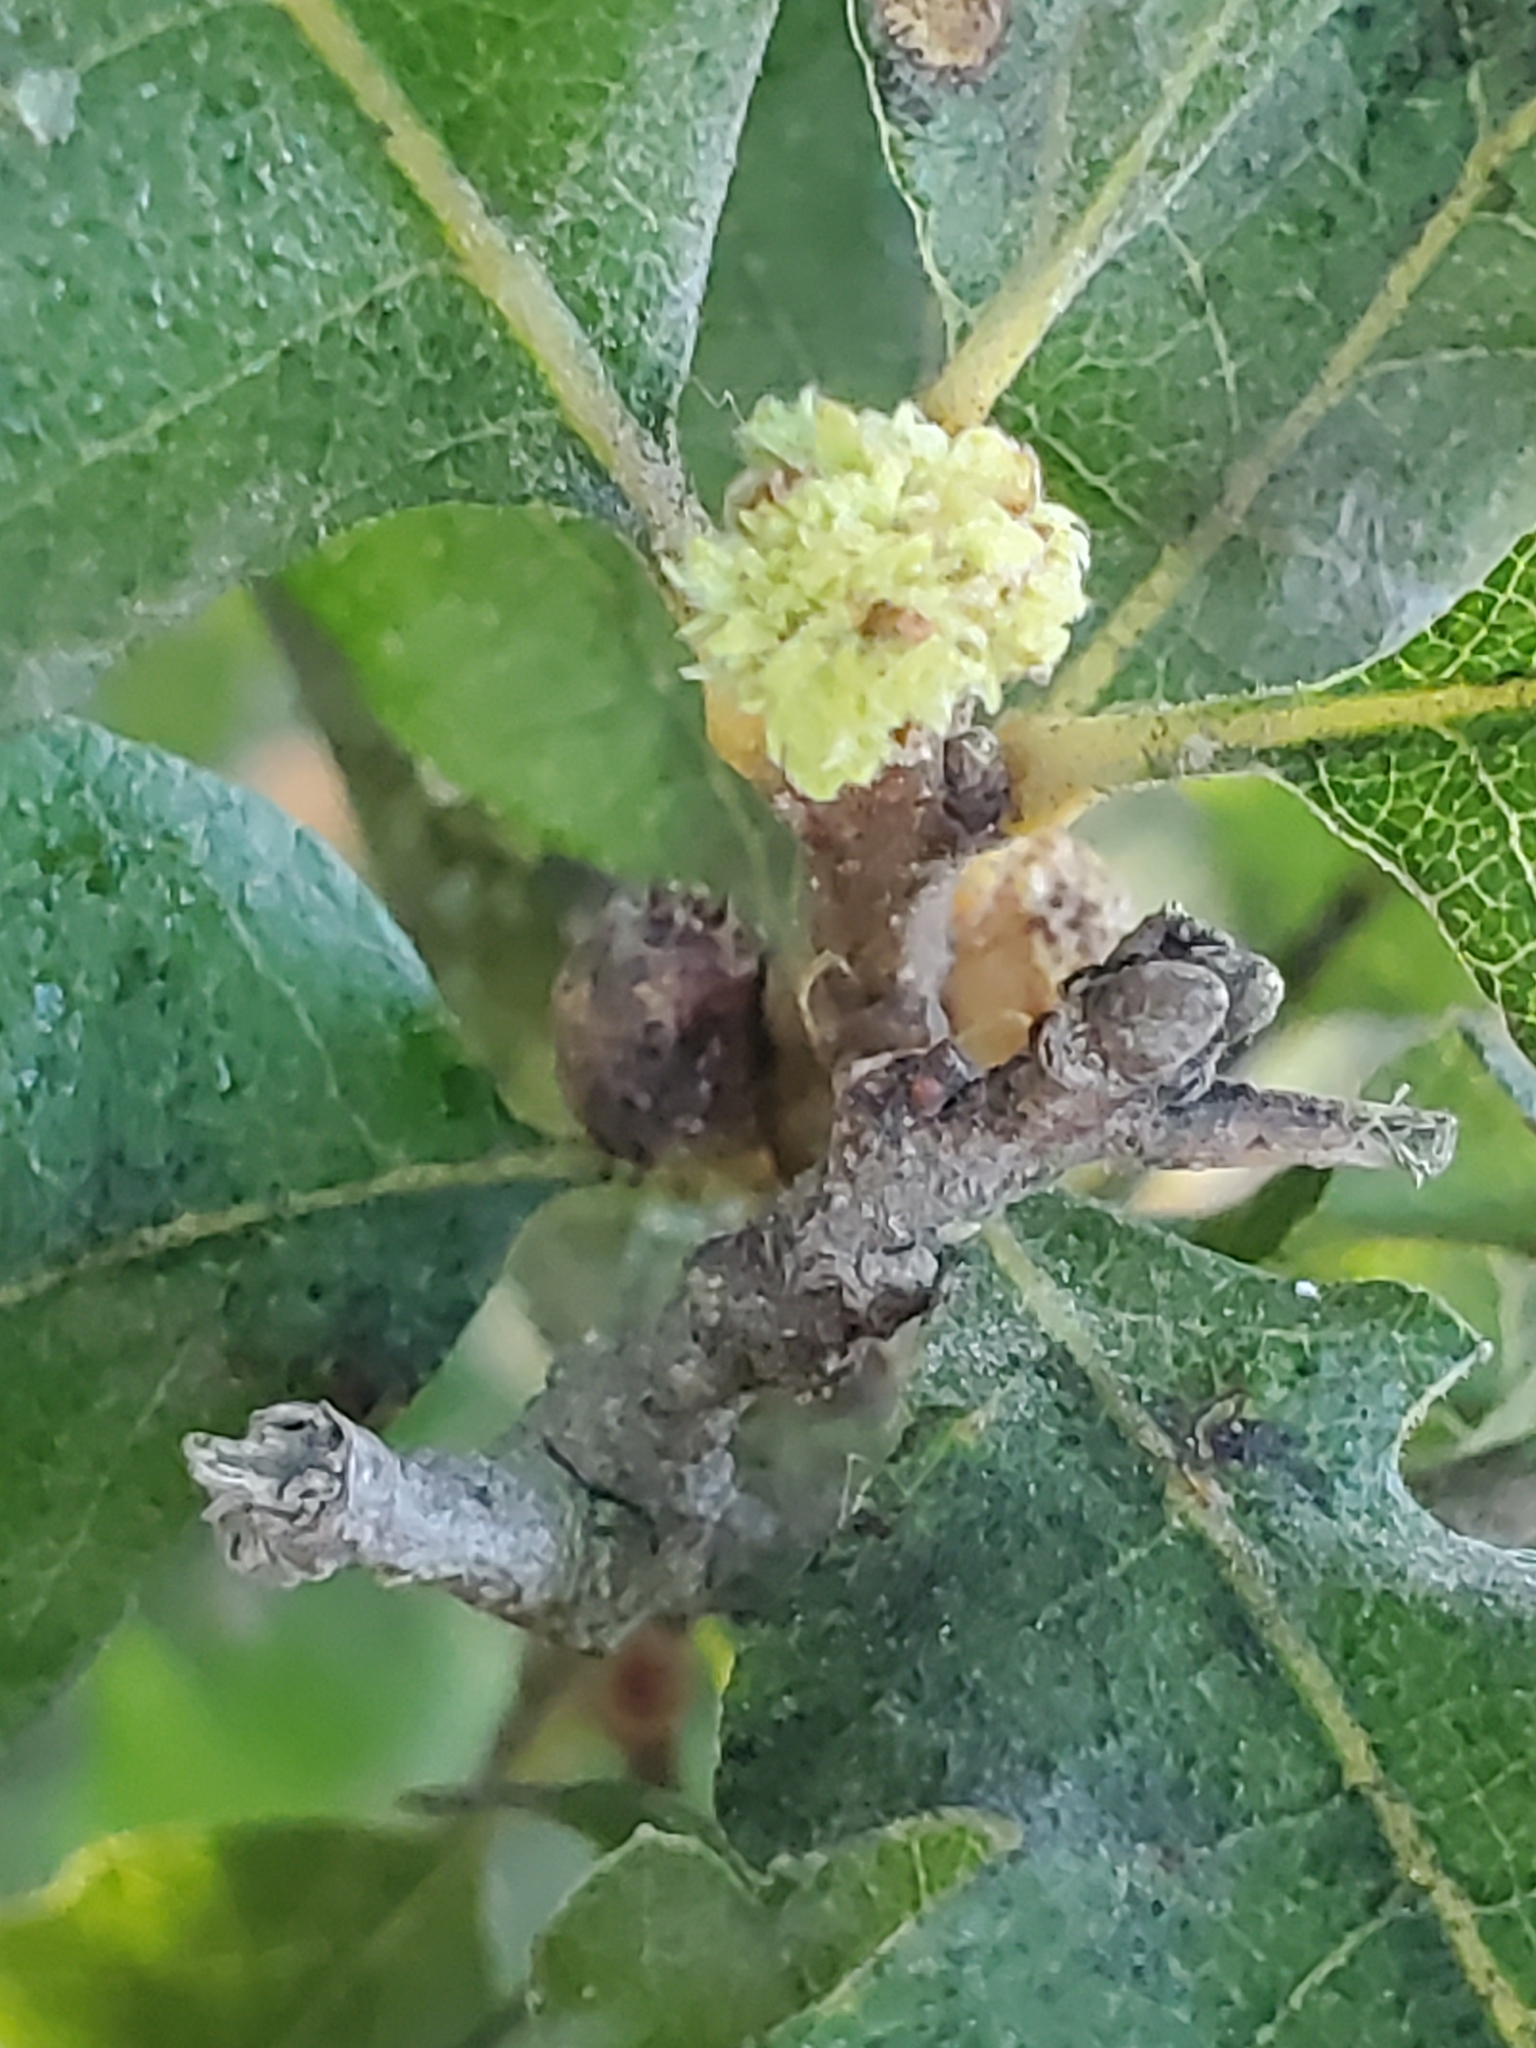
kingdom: Animalia
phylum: Arthropoda
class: Insecta
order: Hymenoptera
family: Cynipidae
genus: Andricus
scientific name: Andricus
